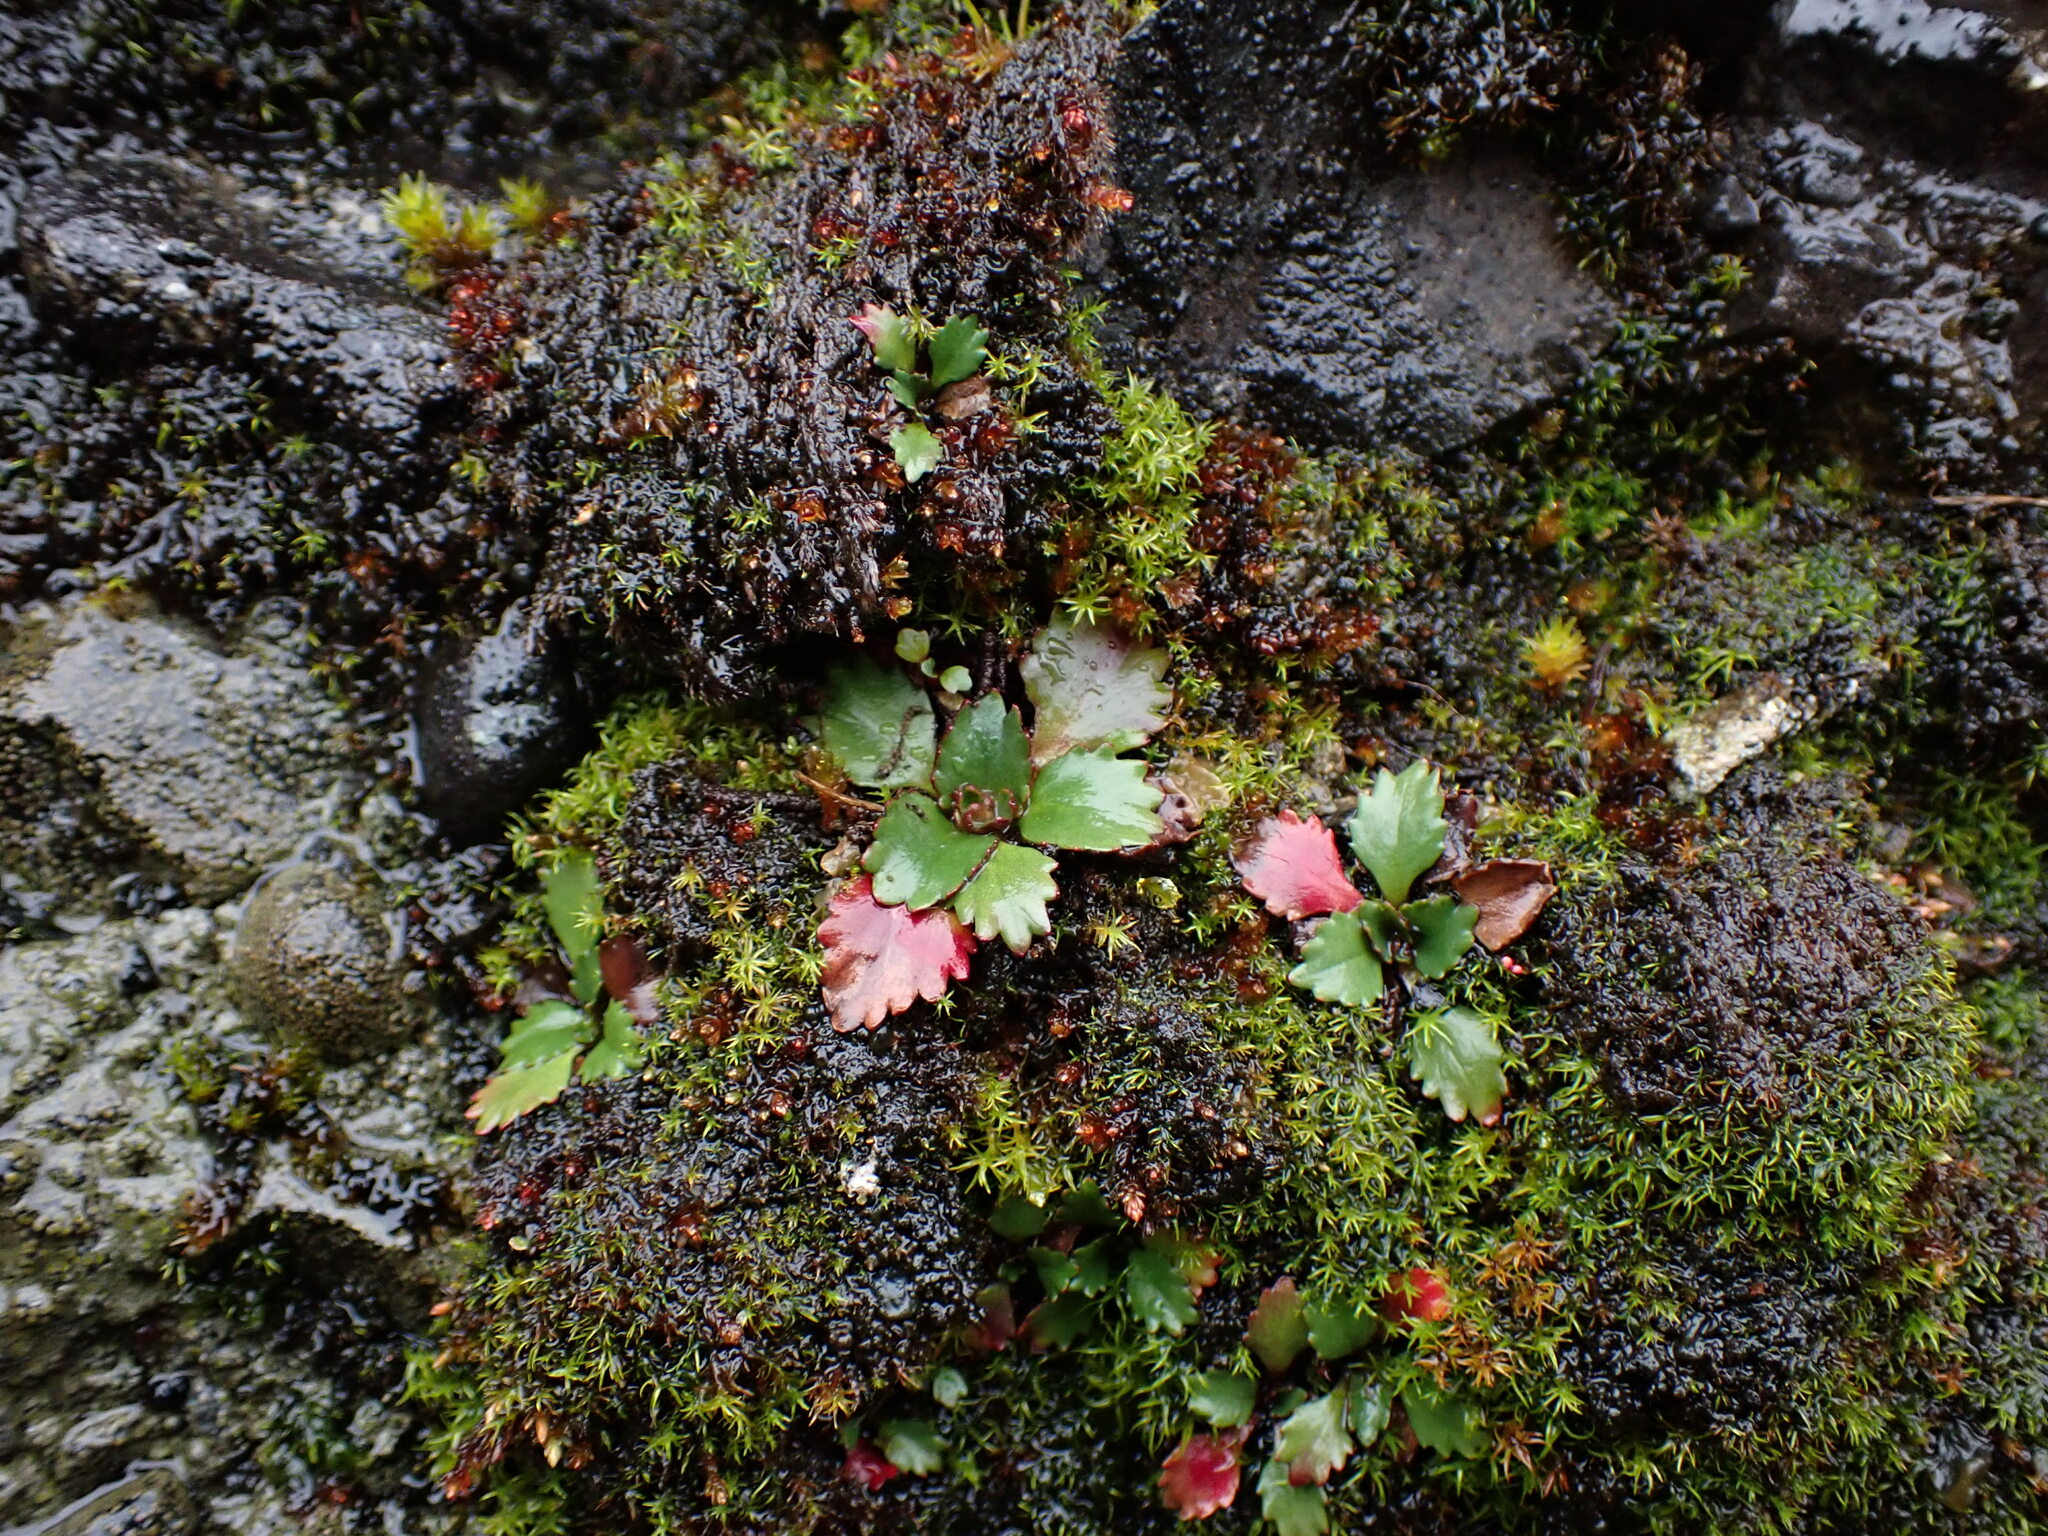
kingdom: Plantae
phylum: Tracheophyta
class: Magnoliopsida
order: Saxifragales
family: Saxifragaceae
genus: Micranthes
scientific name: Micranthes rufidula
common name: Rustyhair saxifrage
